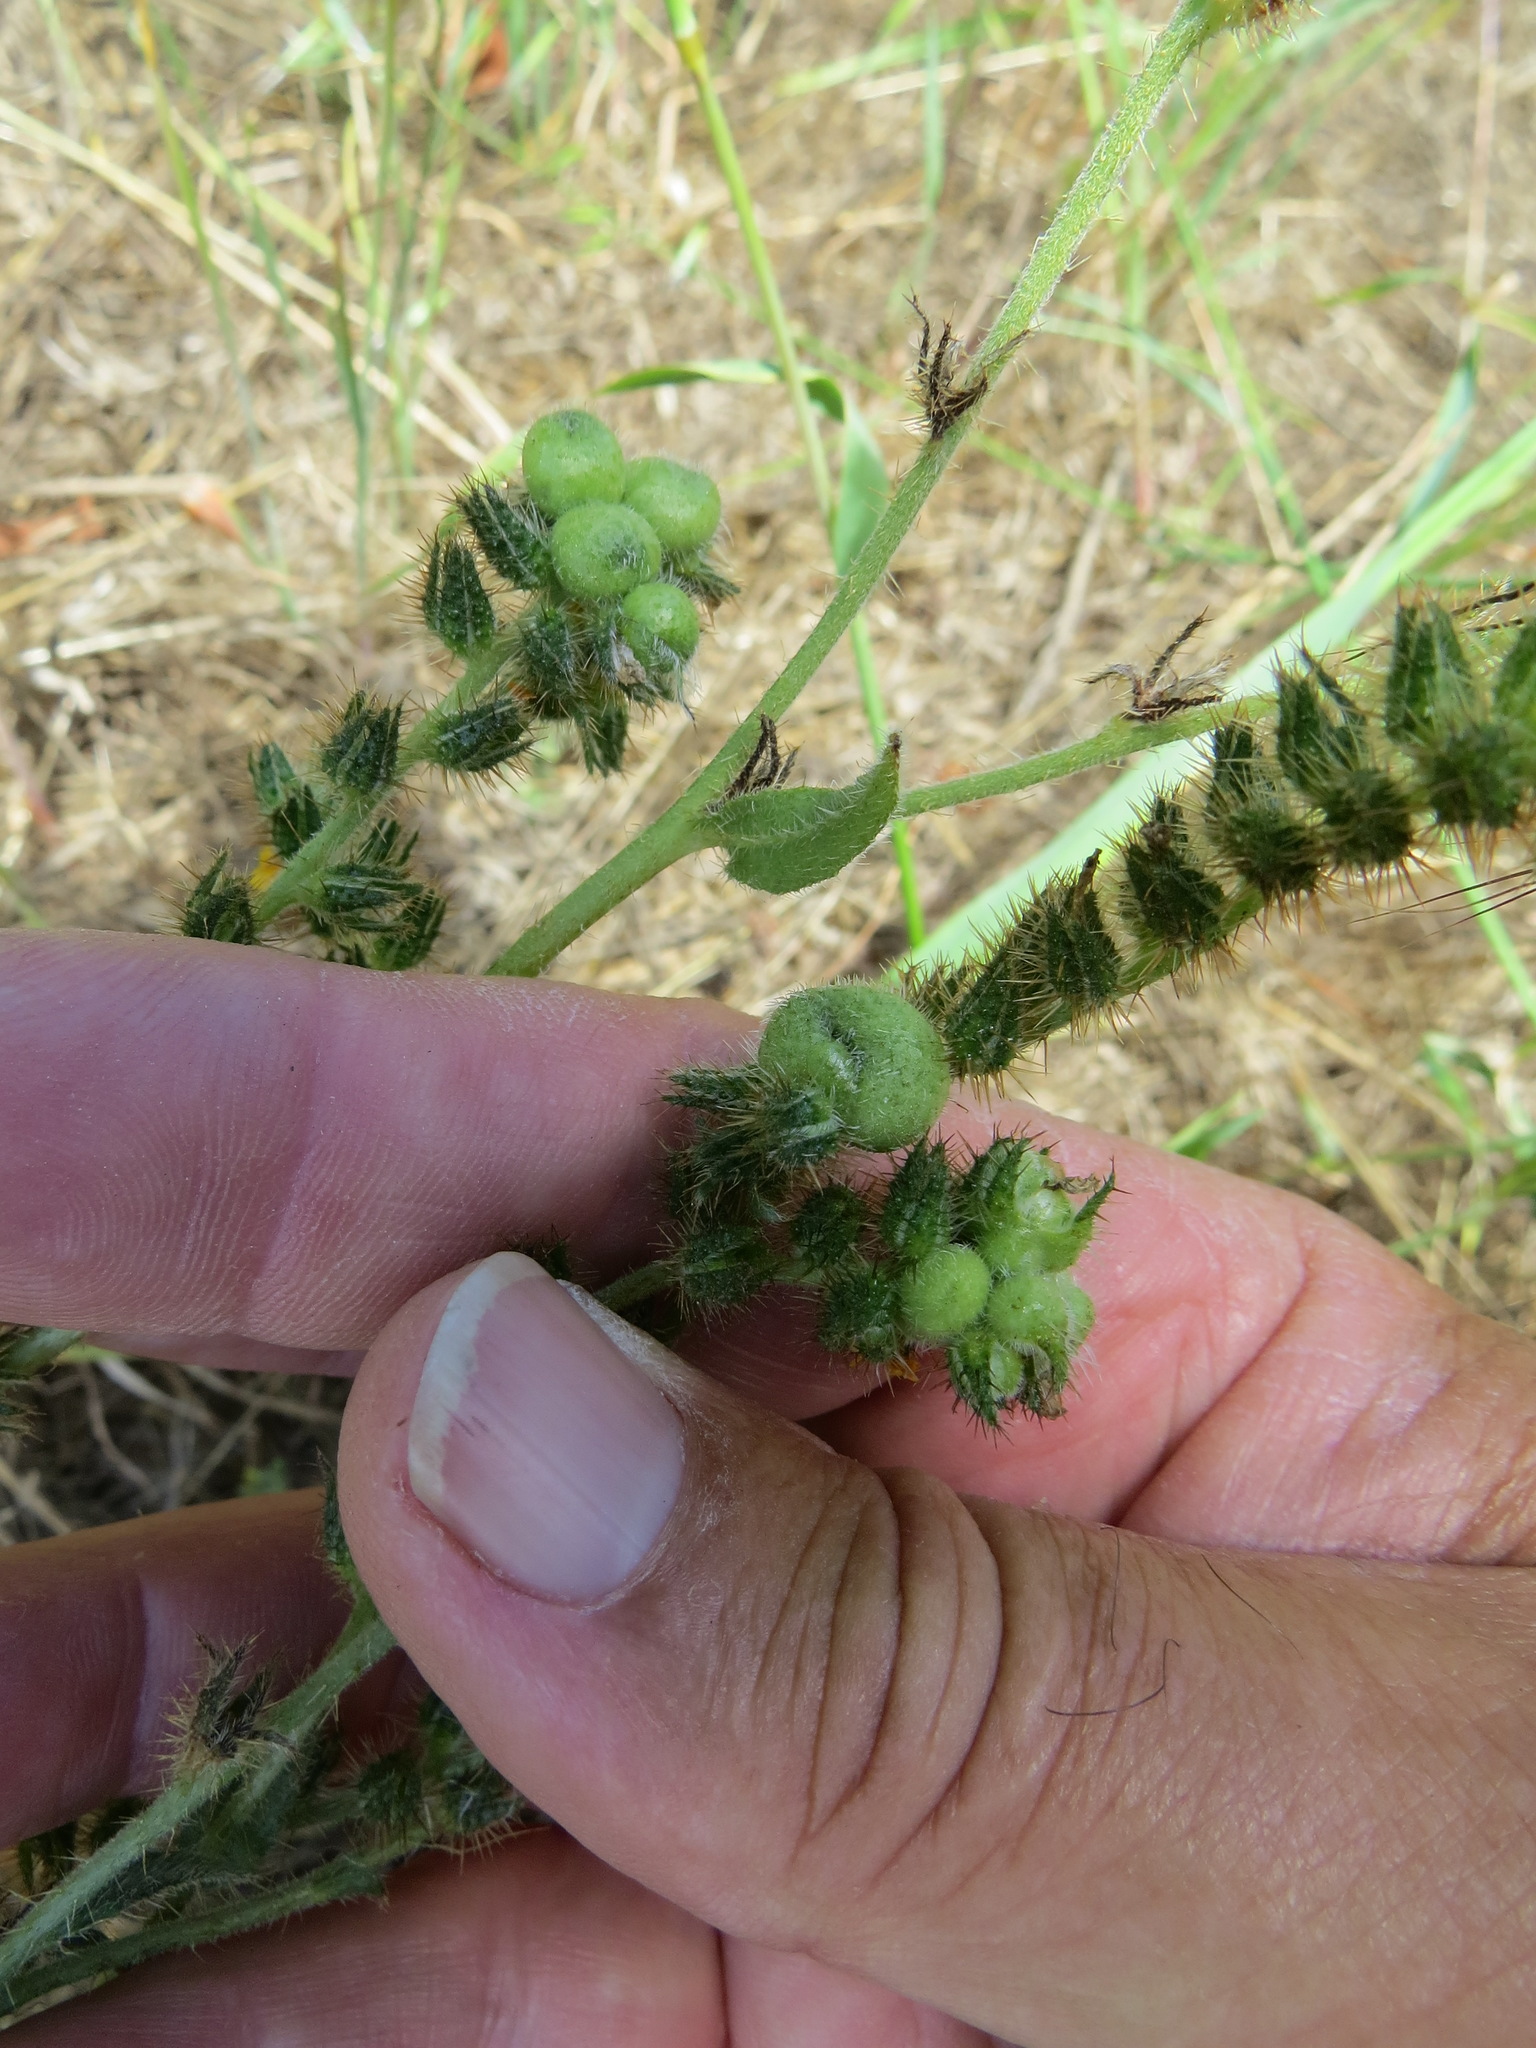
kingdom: Animalia
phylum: Arthropoda
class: Insecta
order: Diptera
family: Cecidomyiidae
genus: Schizomyia
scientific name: Schizomyia macrofila
